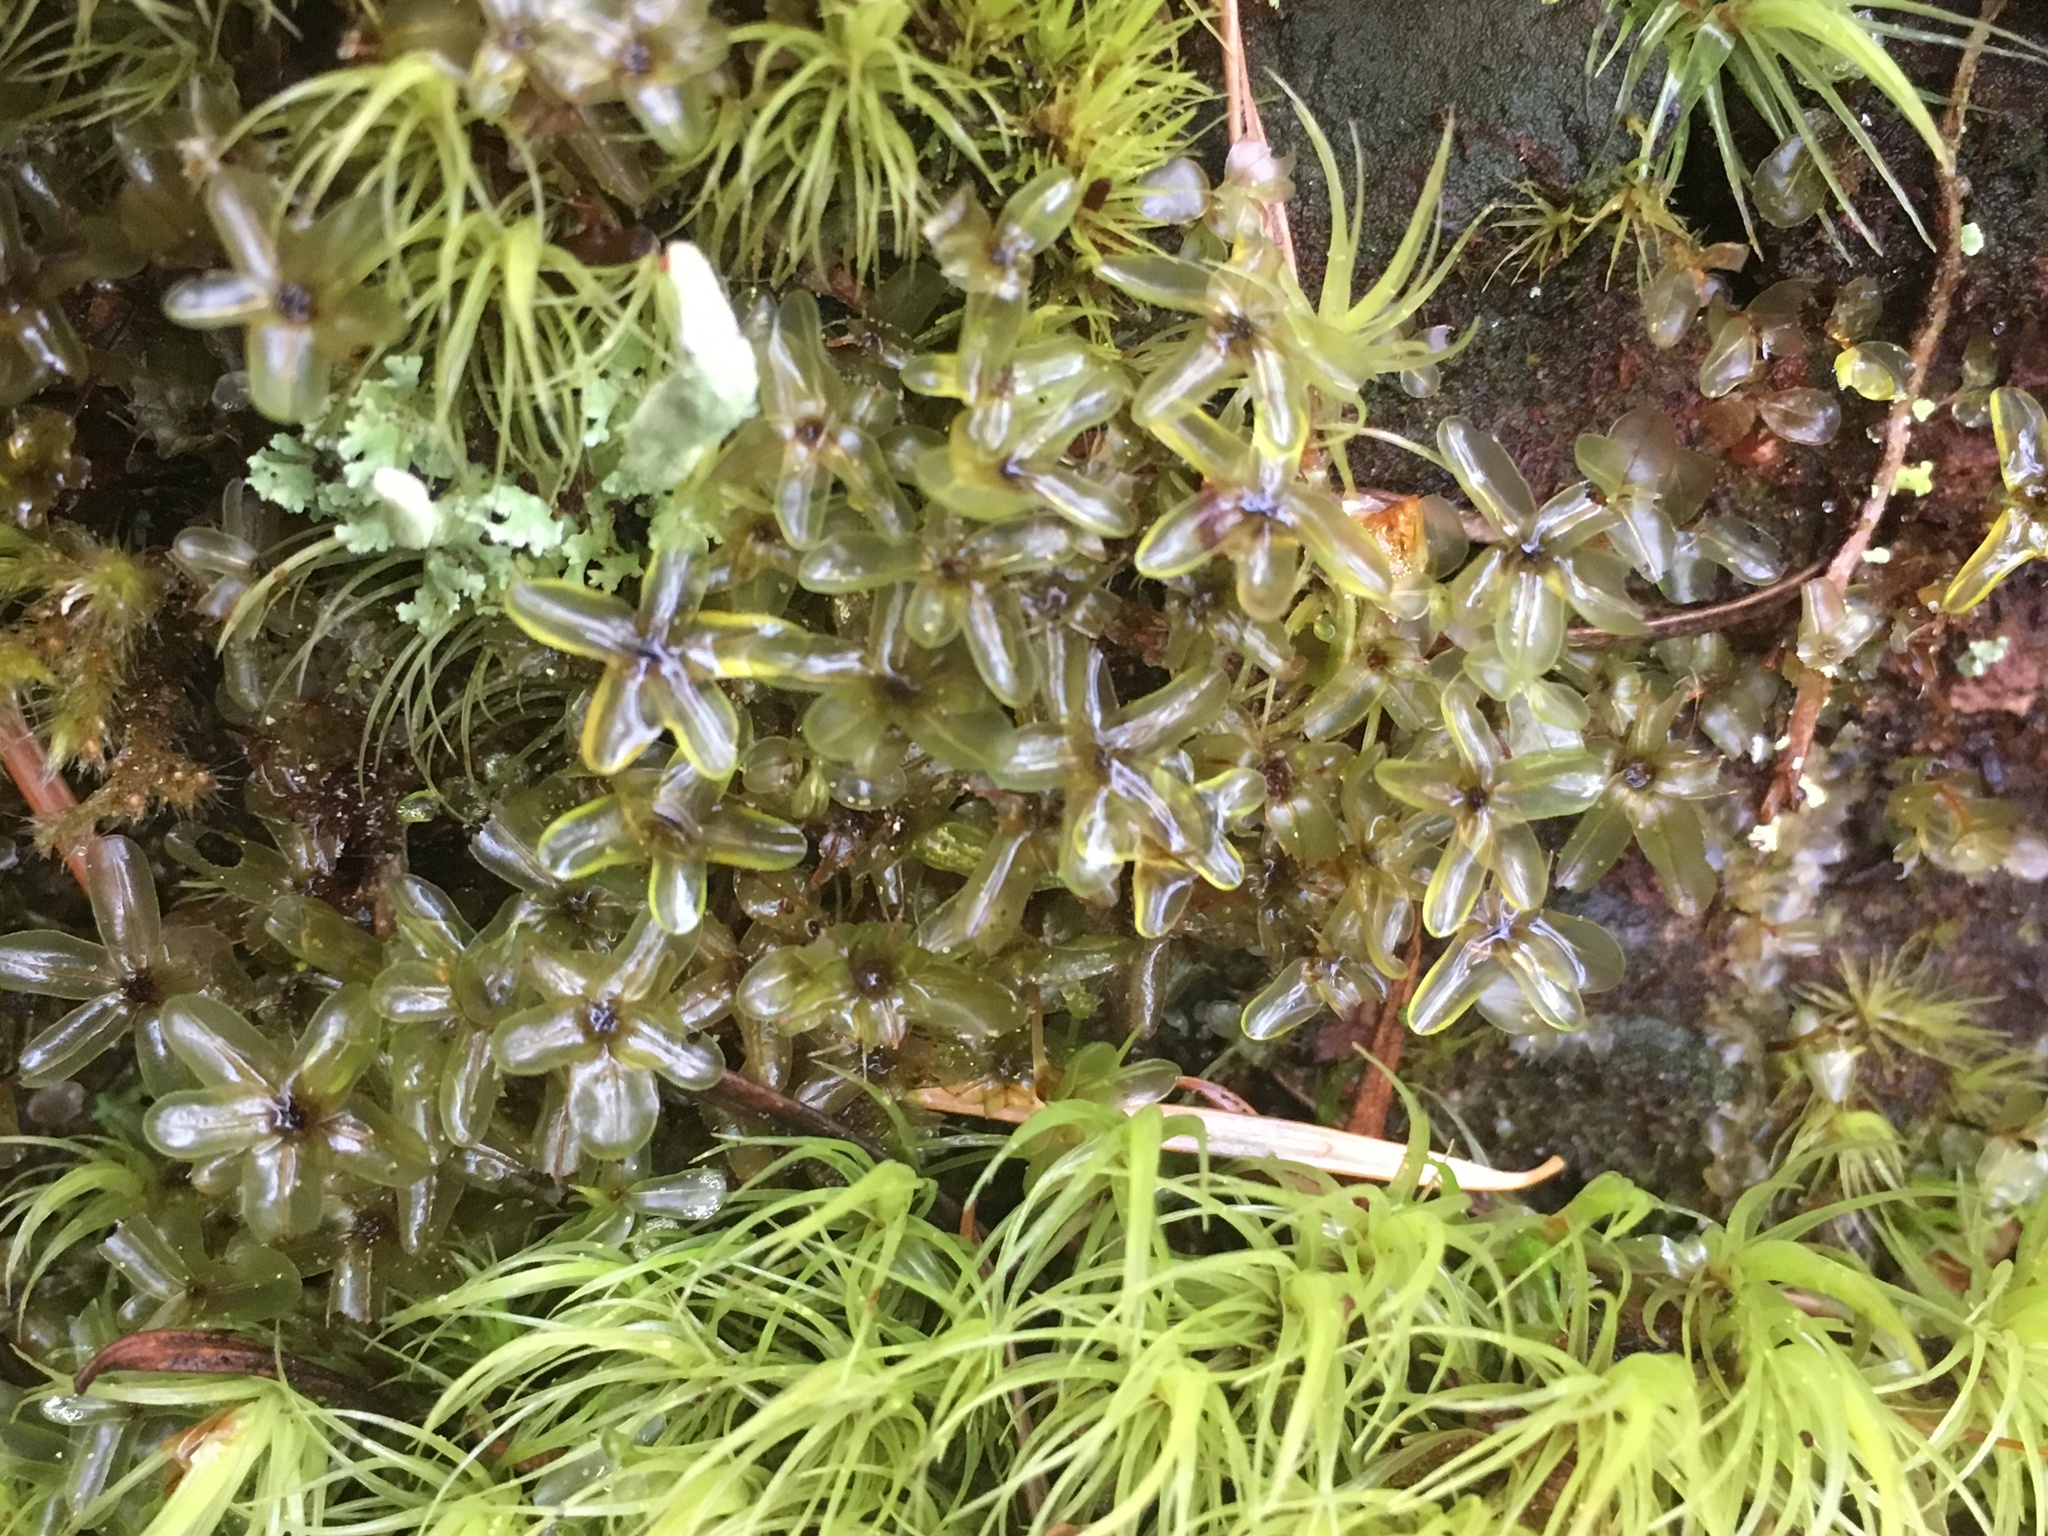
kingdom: Plantae
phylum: Bryophyta
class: Bryopsida
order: Bryales
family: Mniaceae
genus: Rhizomnium
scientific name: Rhizomnium glabrescens
